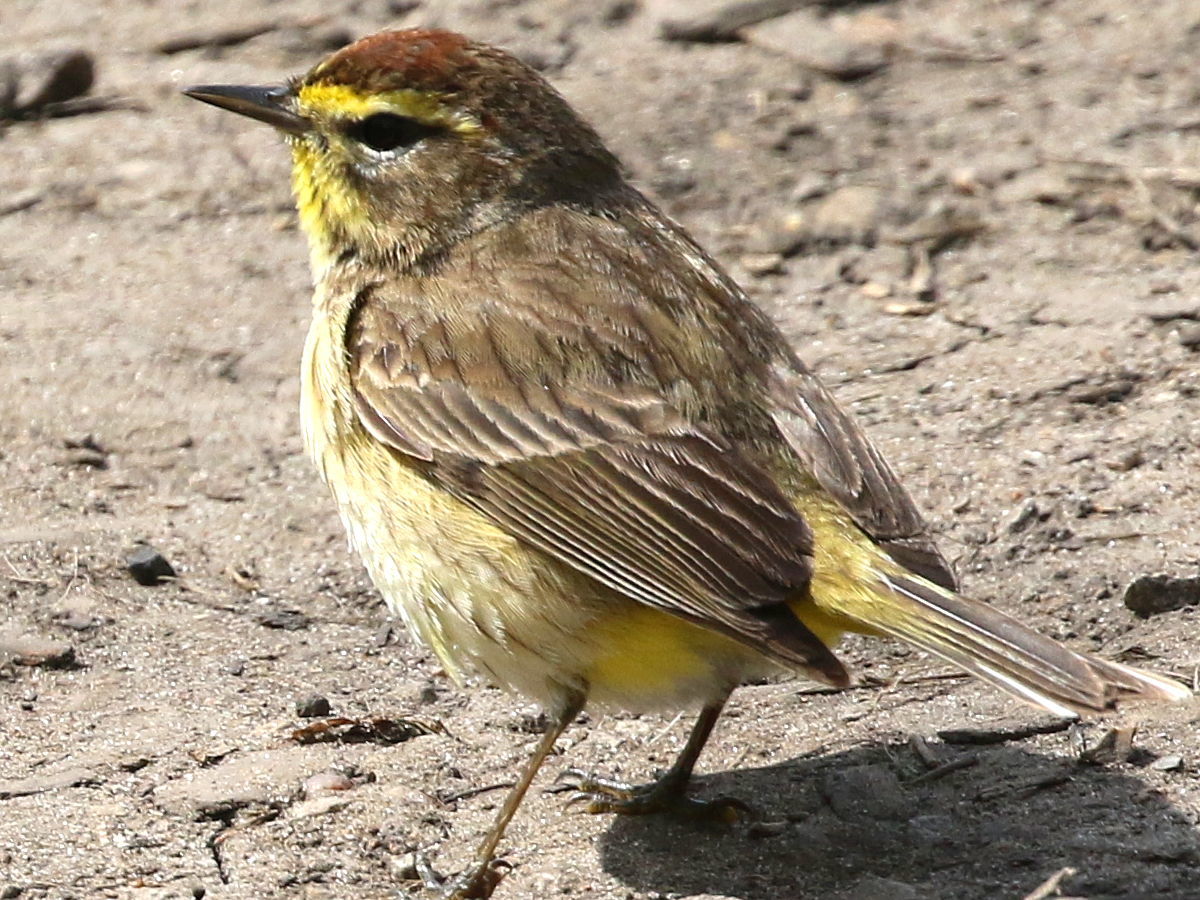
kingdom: Animalia
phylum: Chordata
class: Aves
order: Passeriformes
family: Parulidae
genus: Setophaga
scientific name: Setophaga palmarum
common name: Palm warbler
